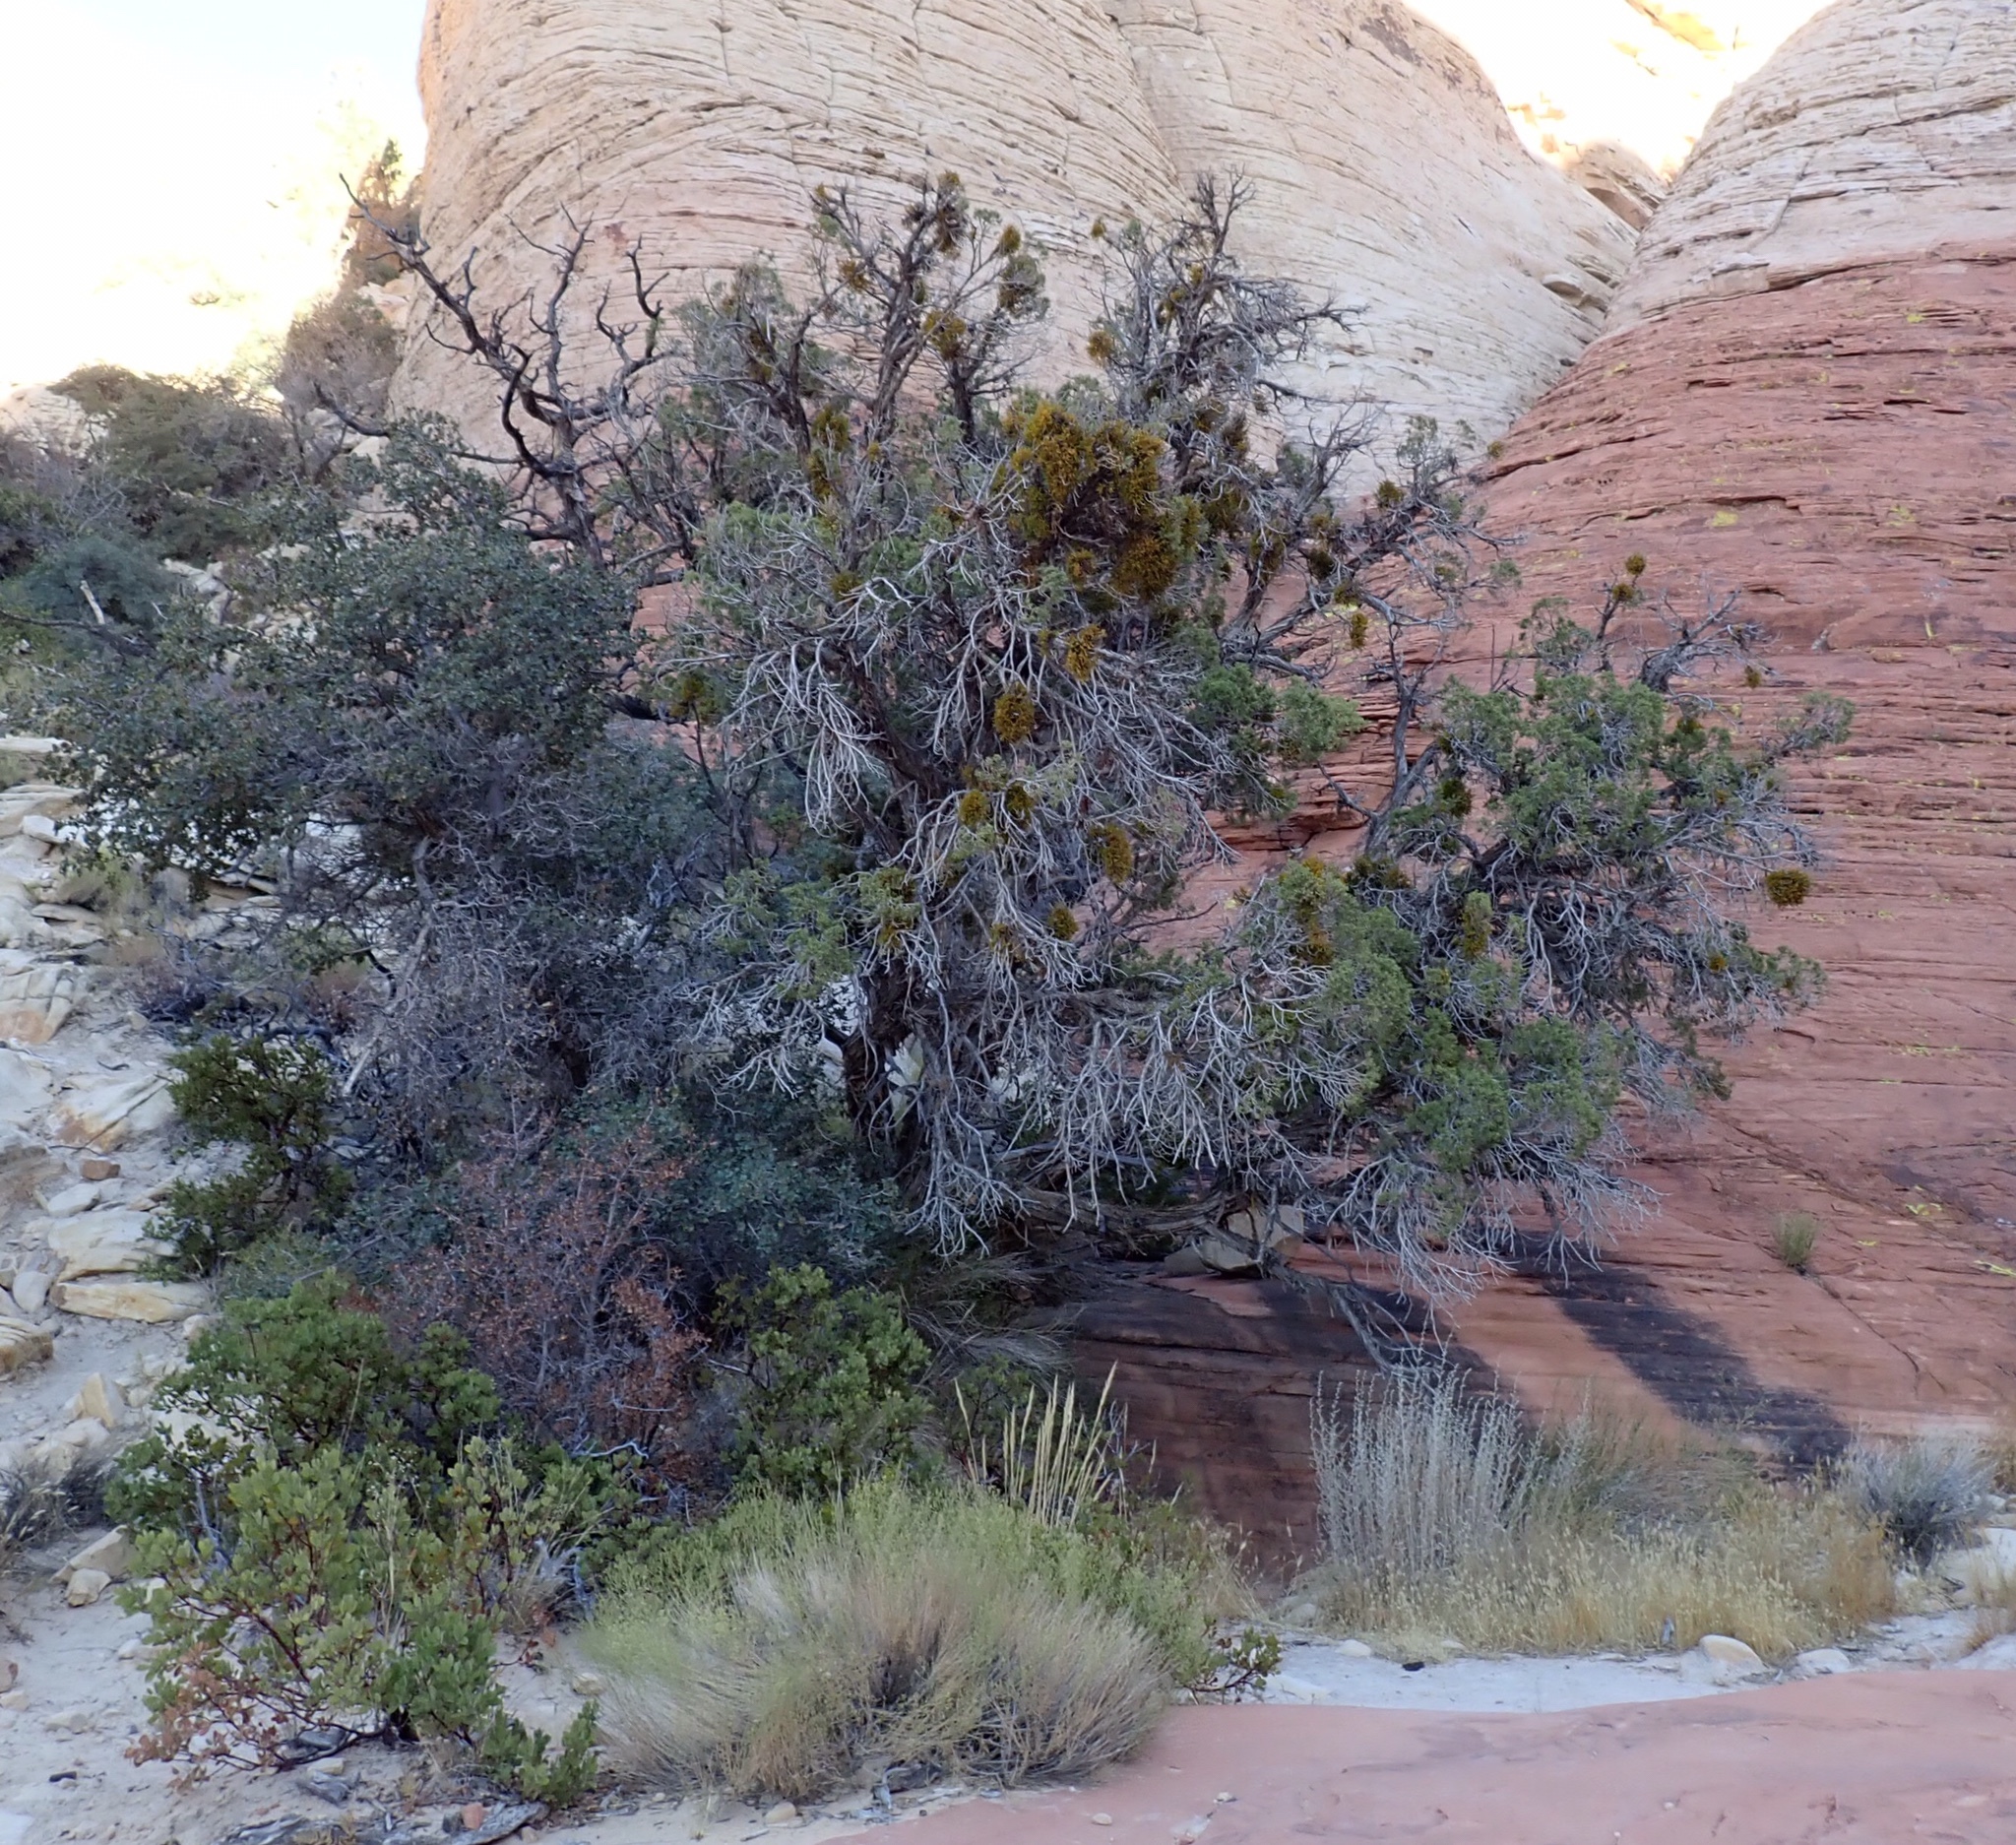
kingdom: Plantae
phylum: Tracheophyta
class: Pinopsida
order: Pinales
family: Cupressaceae
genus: Juniperus
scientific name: Juniperus osteosperma
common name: Utah juniper
